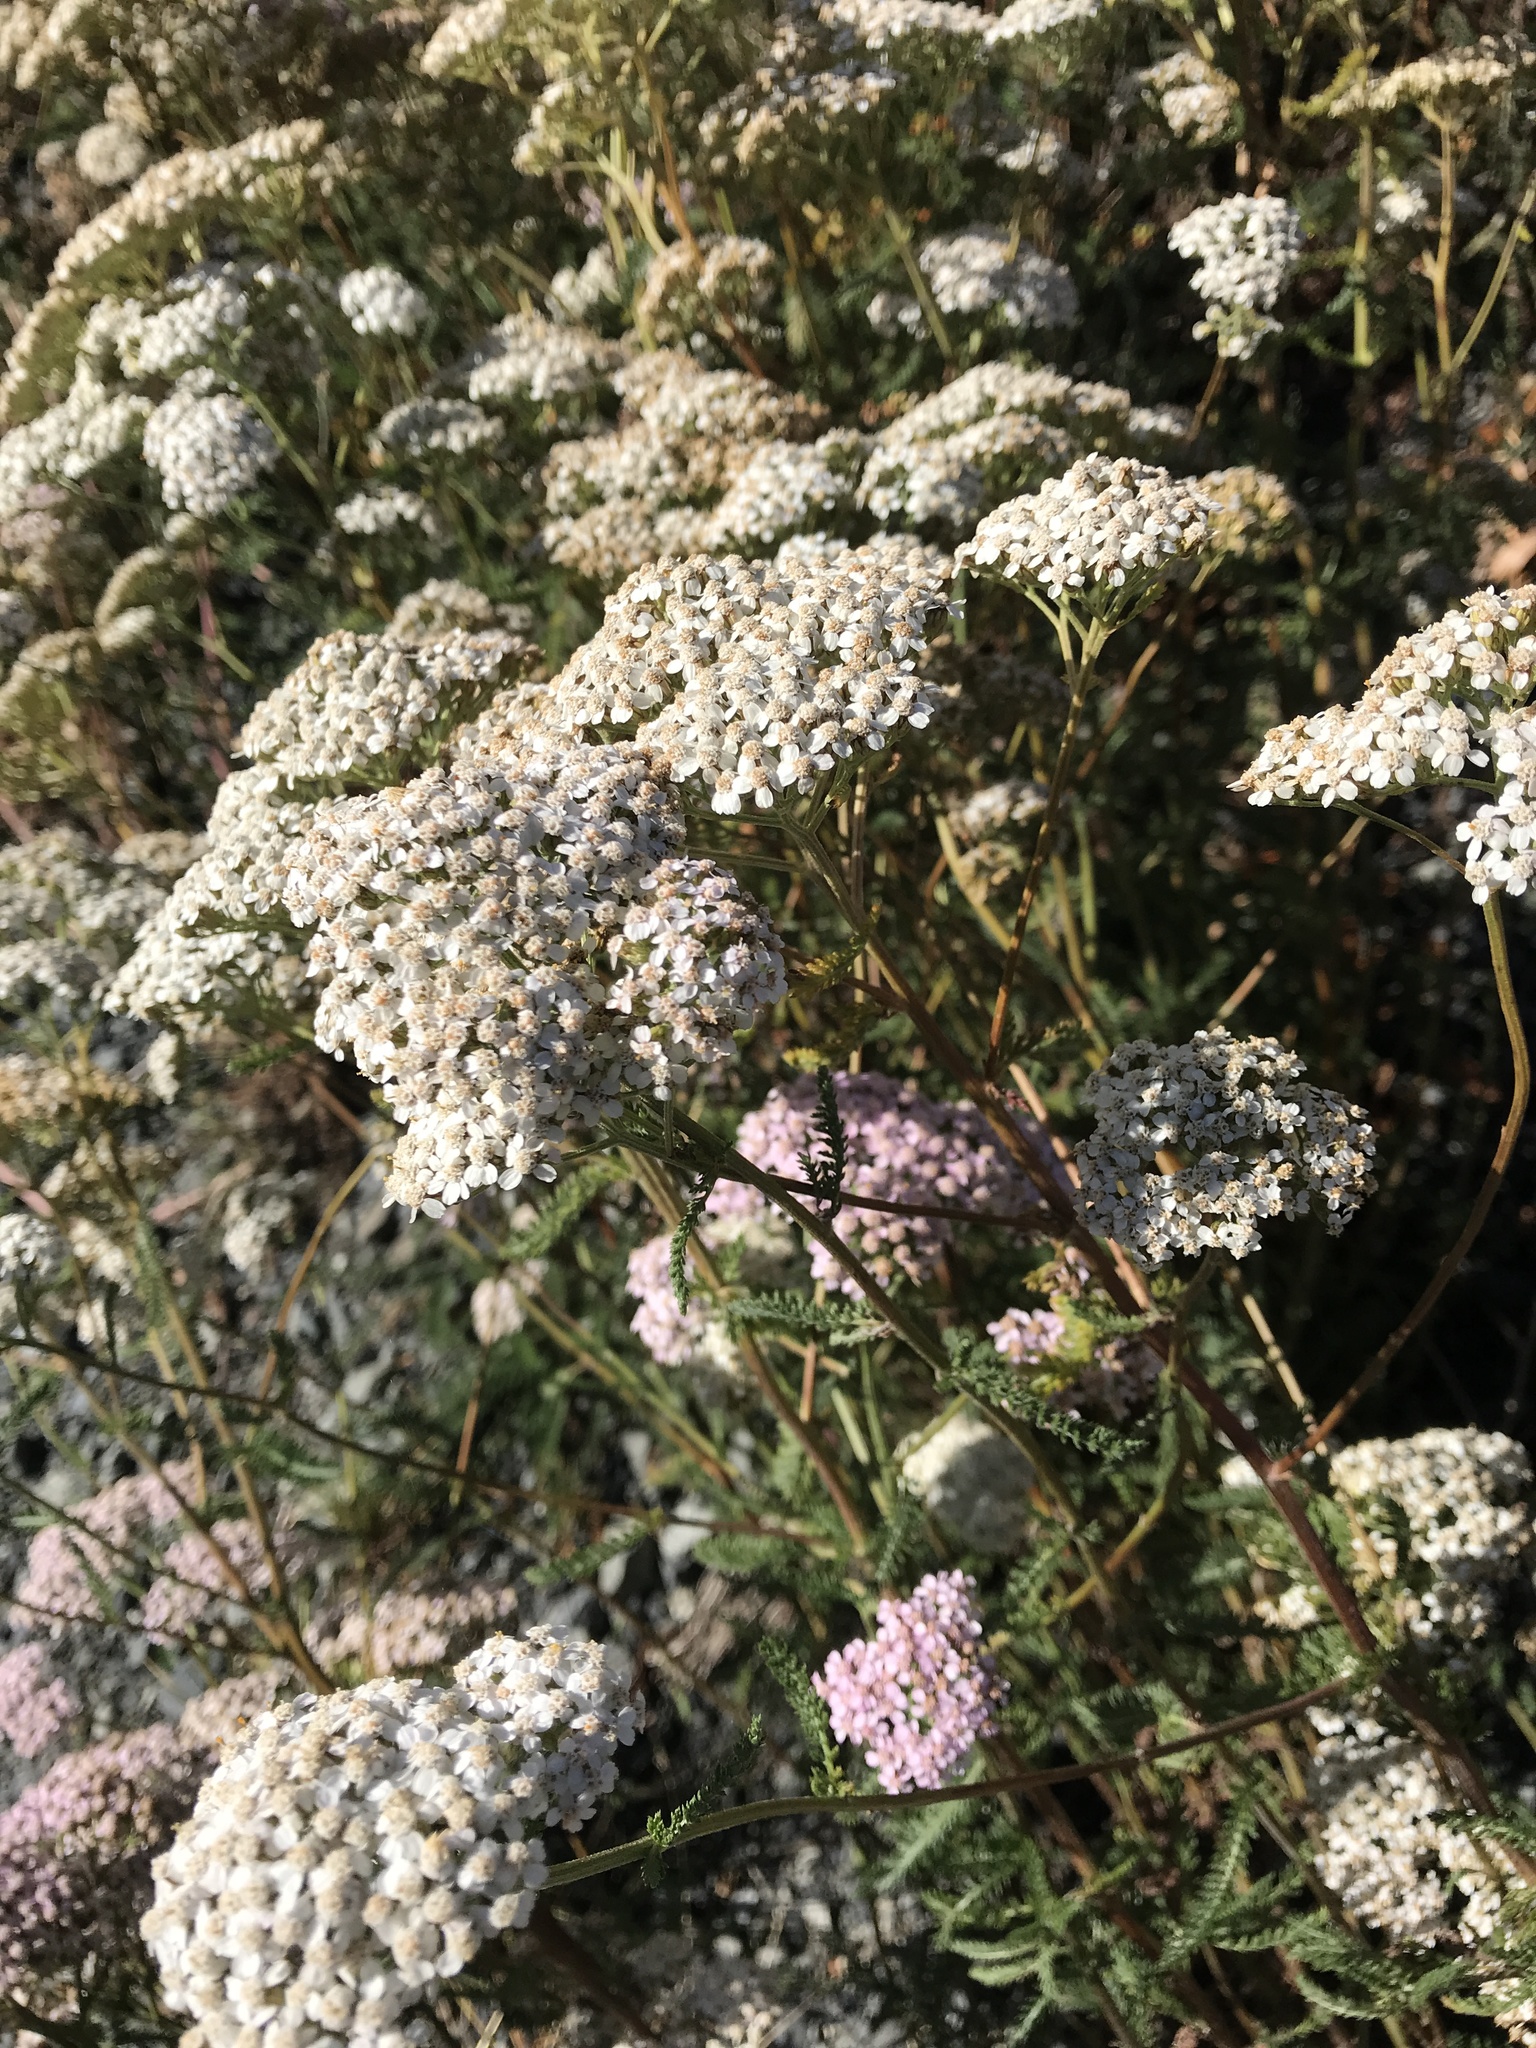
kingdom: Plantae
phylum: Tracheophyta
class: Magnoliopsida
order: Asterales
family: Asteraceae
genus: Achillea
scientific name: Achillea millefolium
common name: Yarrow
